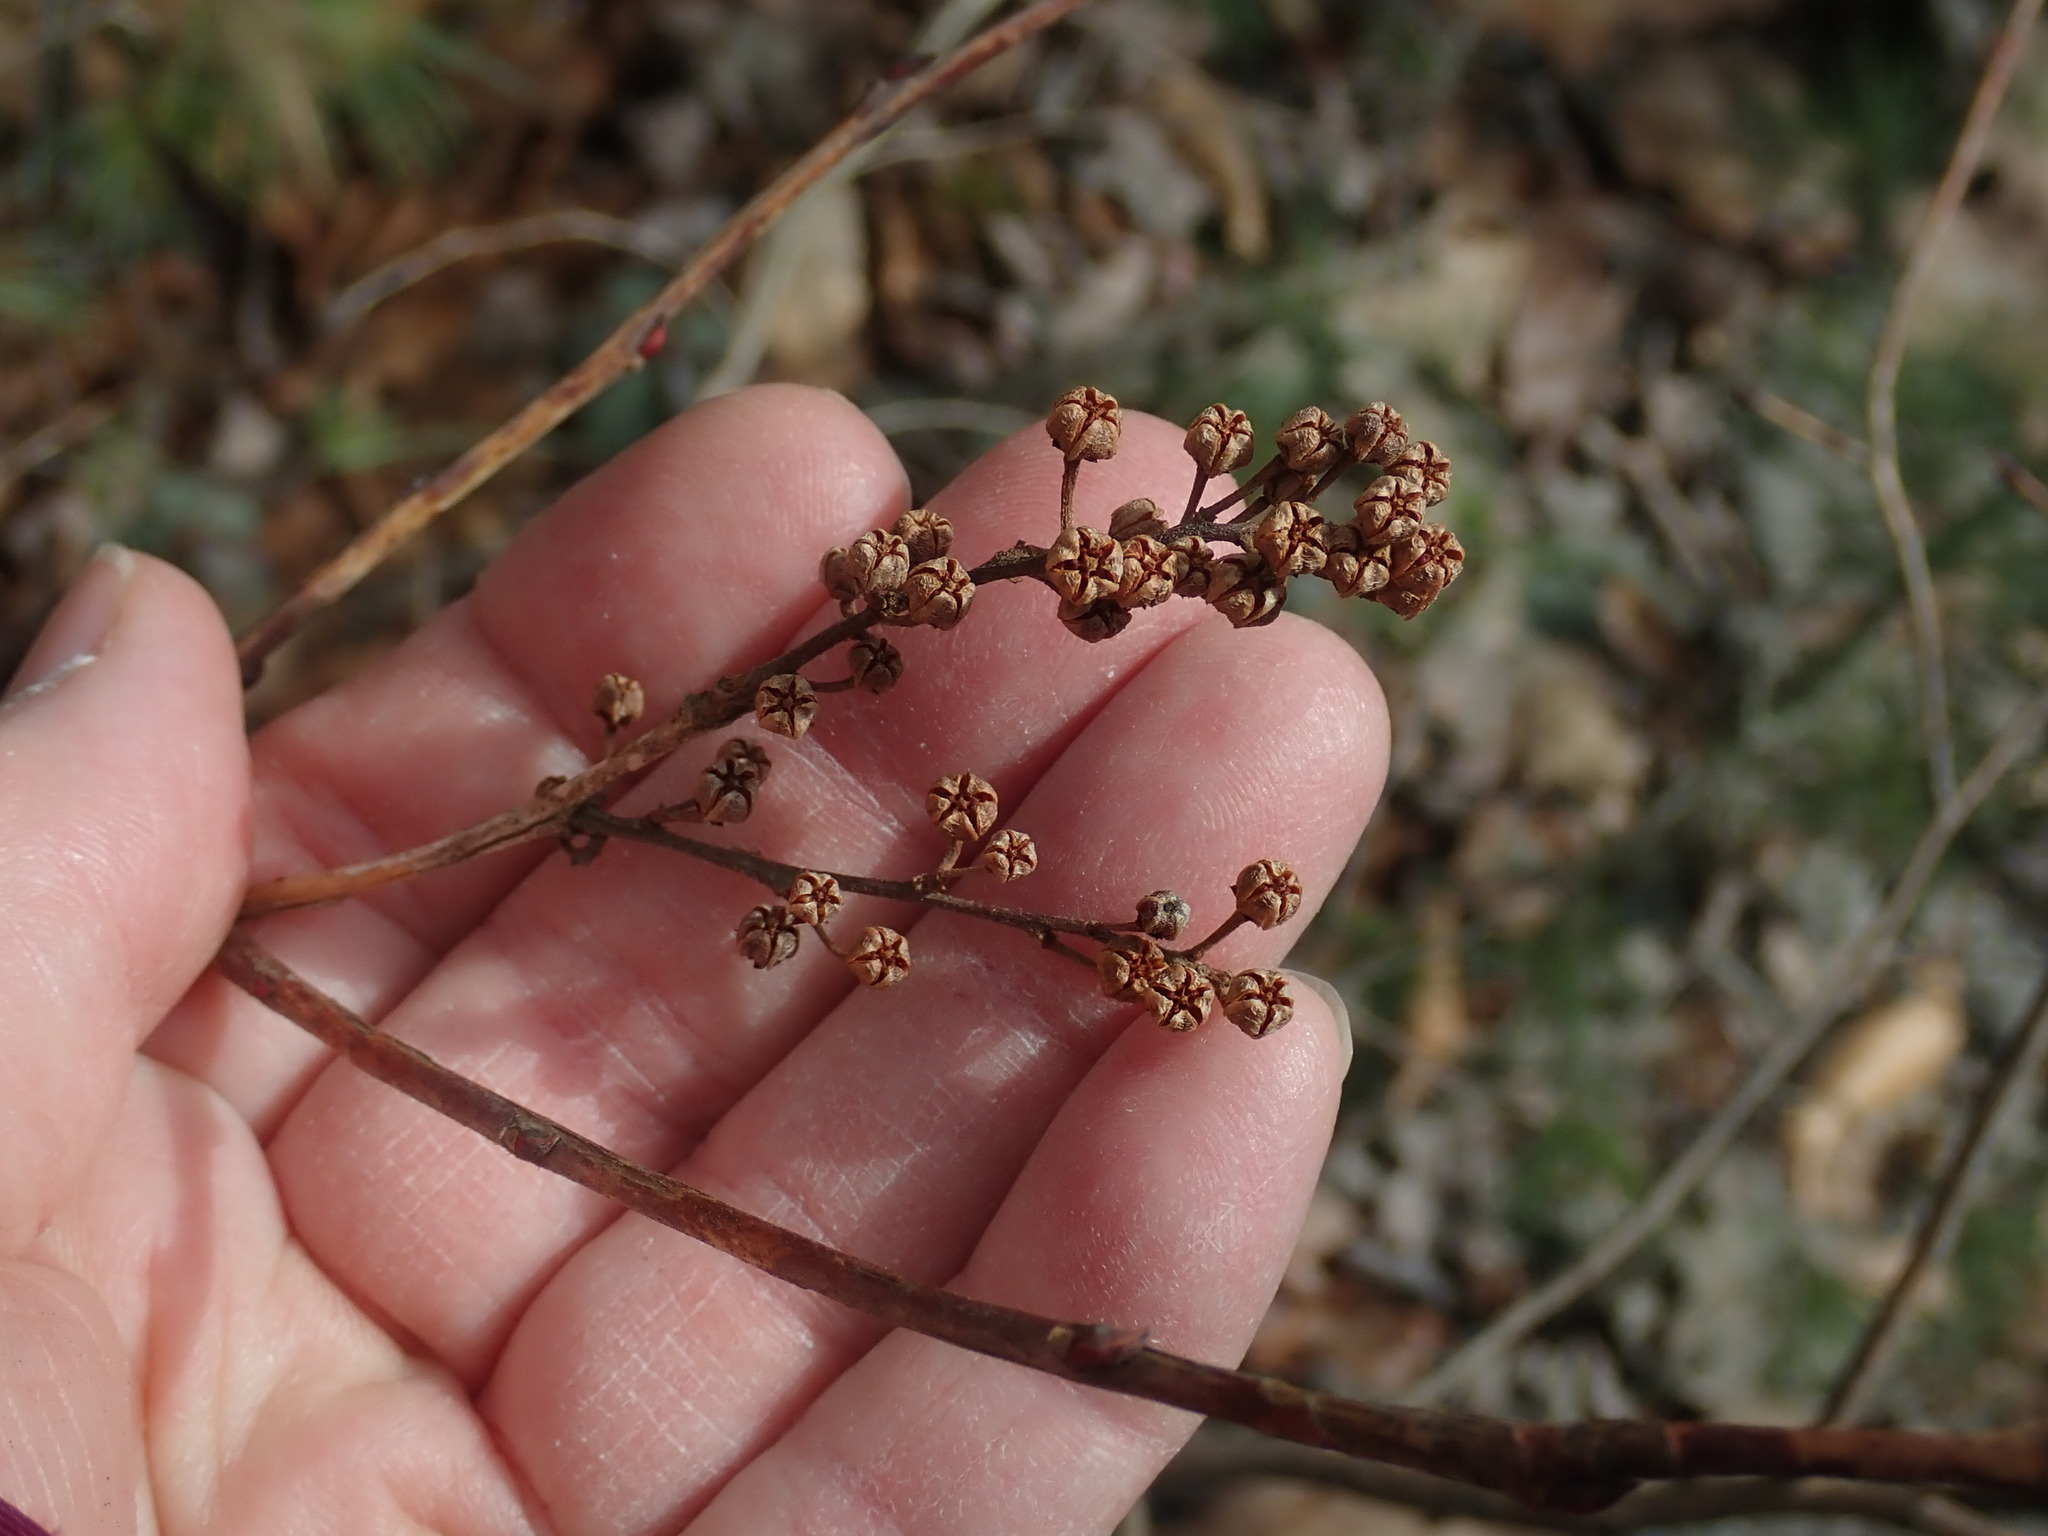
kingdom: Plantae
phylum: Tracheophyta
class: Magnoliopsida
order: Ericales
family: Ericaceae
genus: Lyonia
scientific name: Lyonia ligustrina
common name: Maleberry
